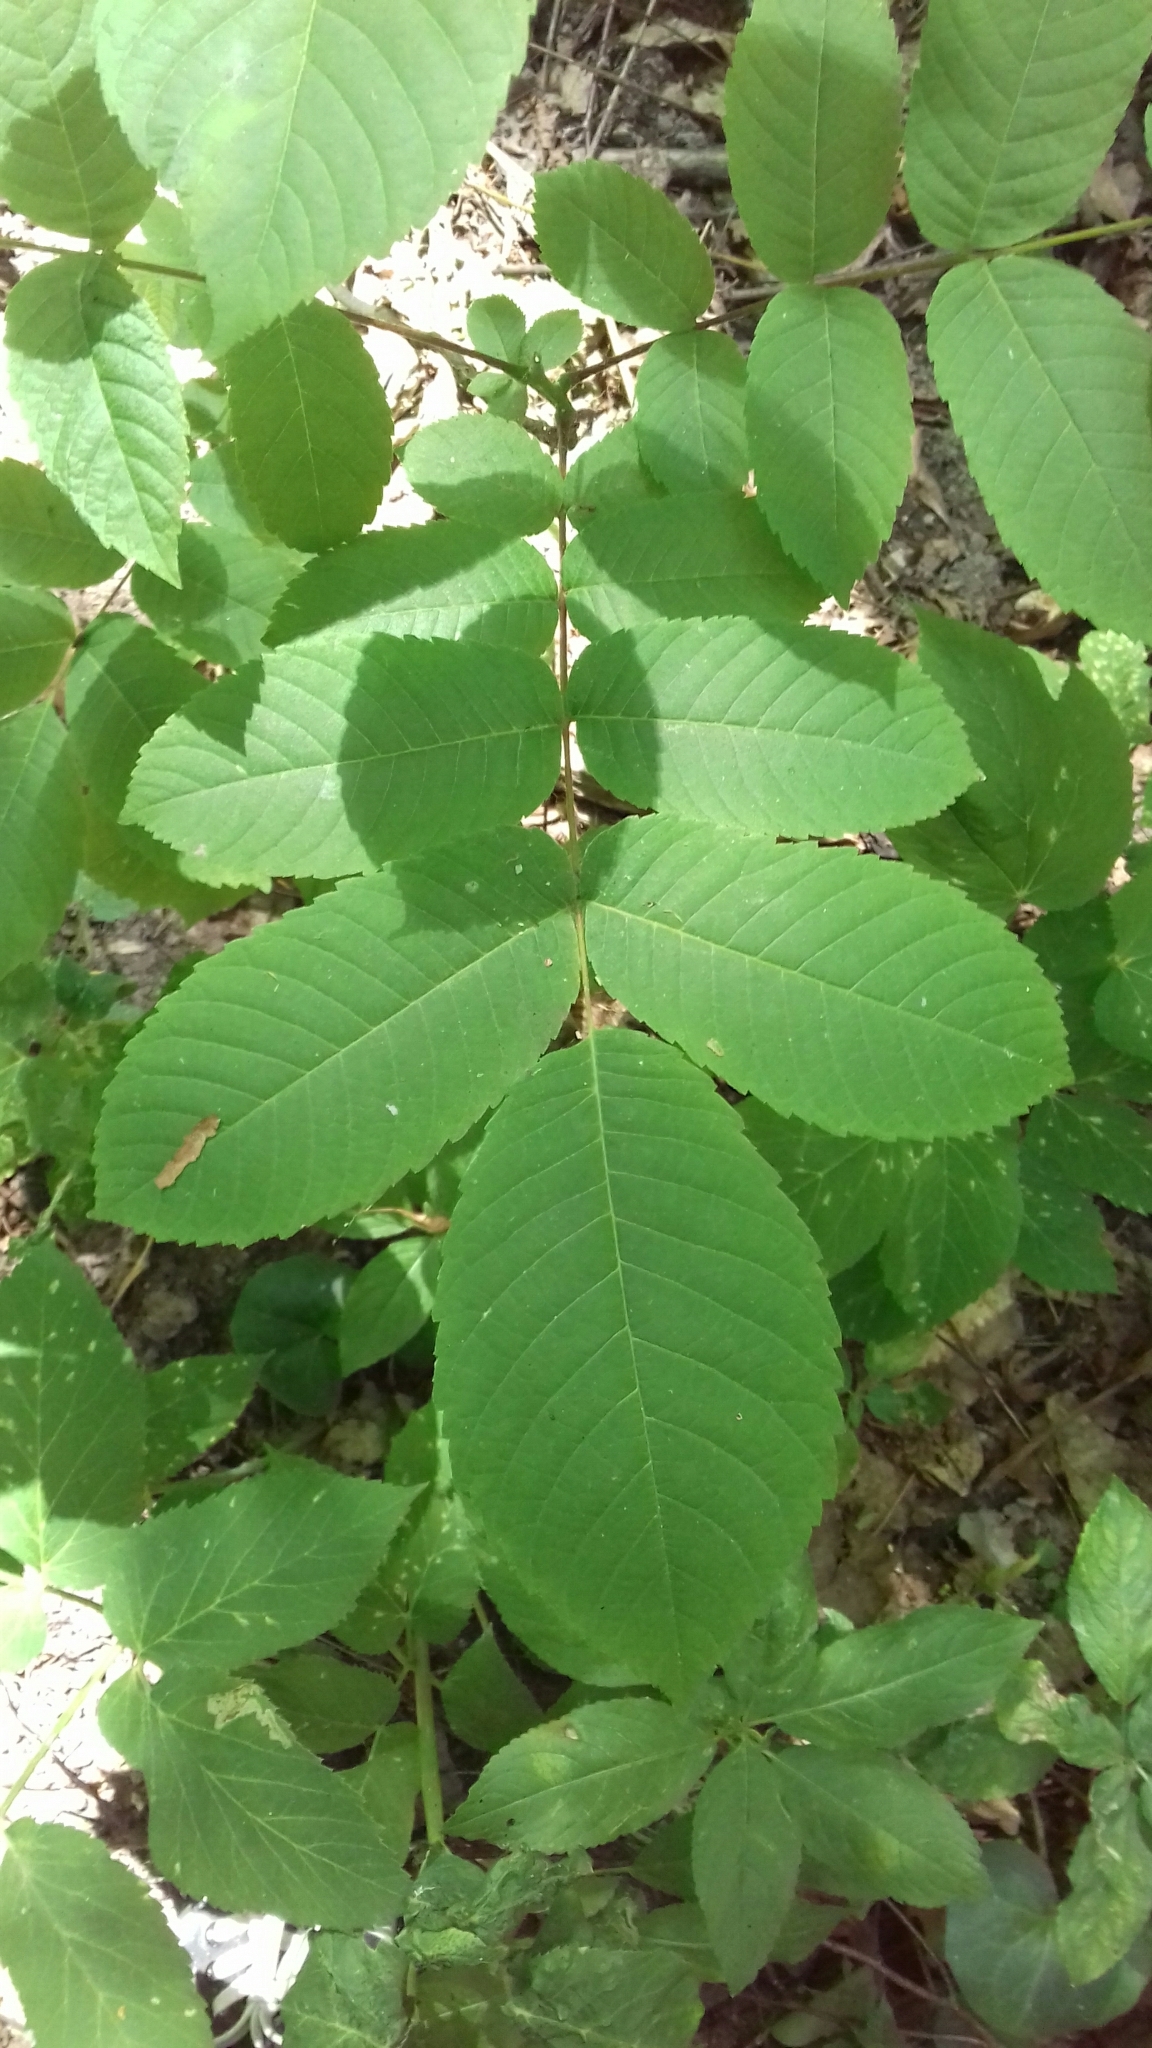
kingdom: Plantae
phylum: Tracheophyta
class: Magnoliopsida
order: Fagales
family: Juglandaceae
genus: Juglans
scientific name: Juglans mandshurica
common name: Manchurian walnut
